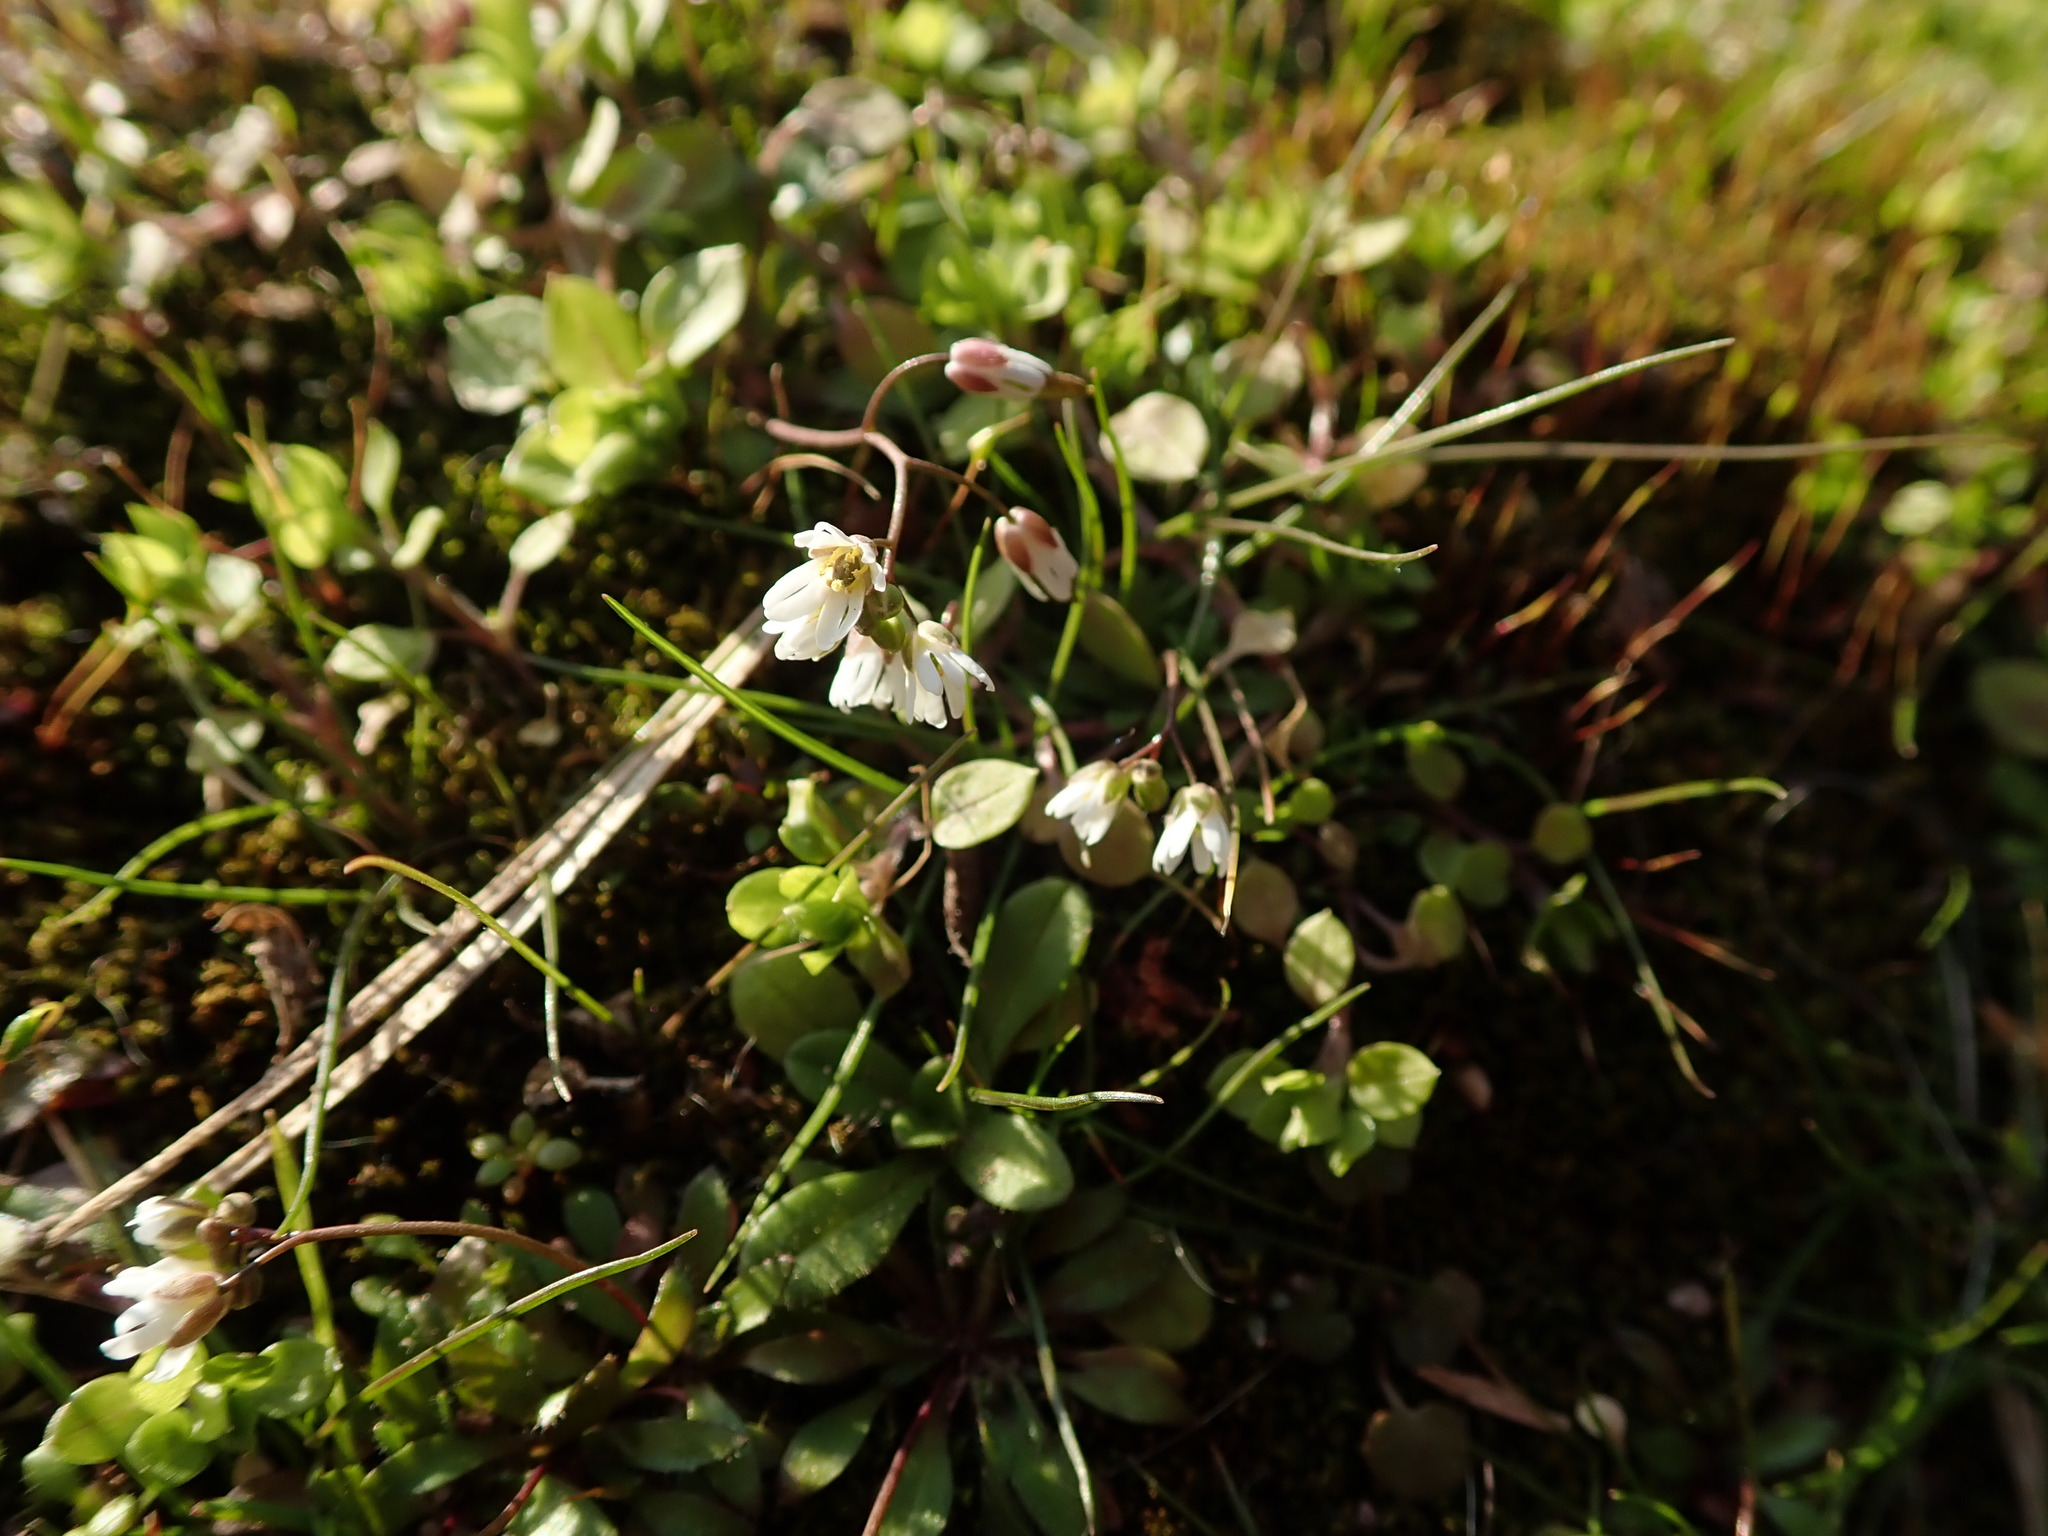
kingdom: Plantae
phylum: Tracheophyta
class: Magnoliopsida
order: Brassicales
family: Brassicaceae
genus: Draba
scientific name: Draba verna
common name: Spring draba
